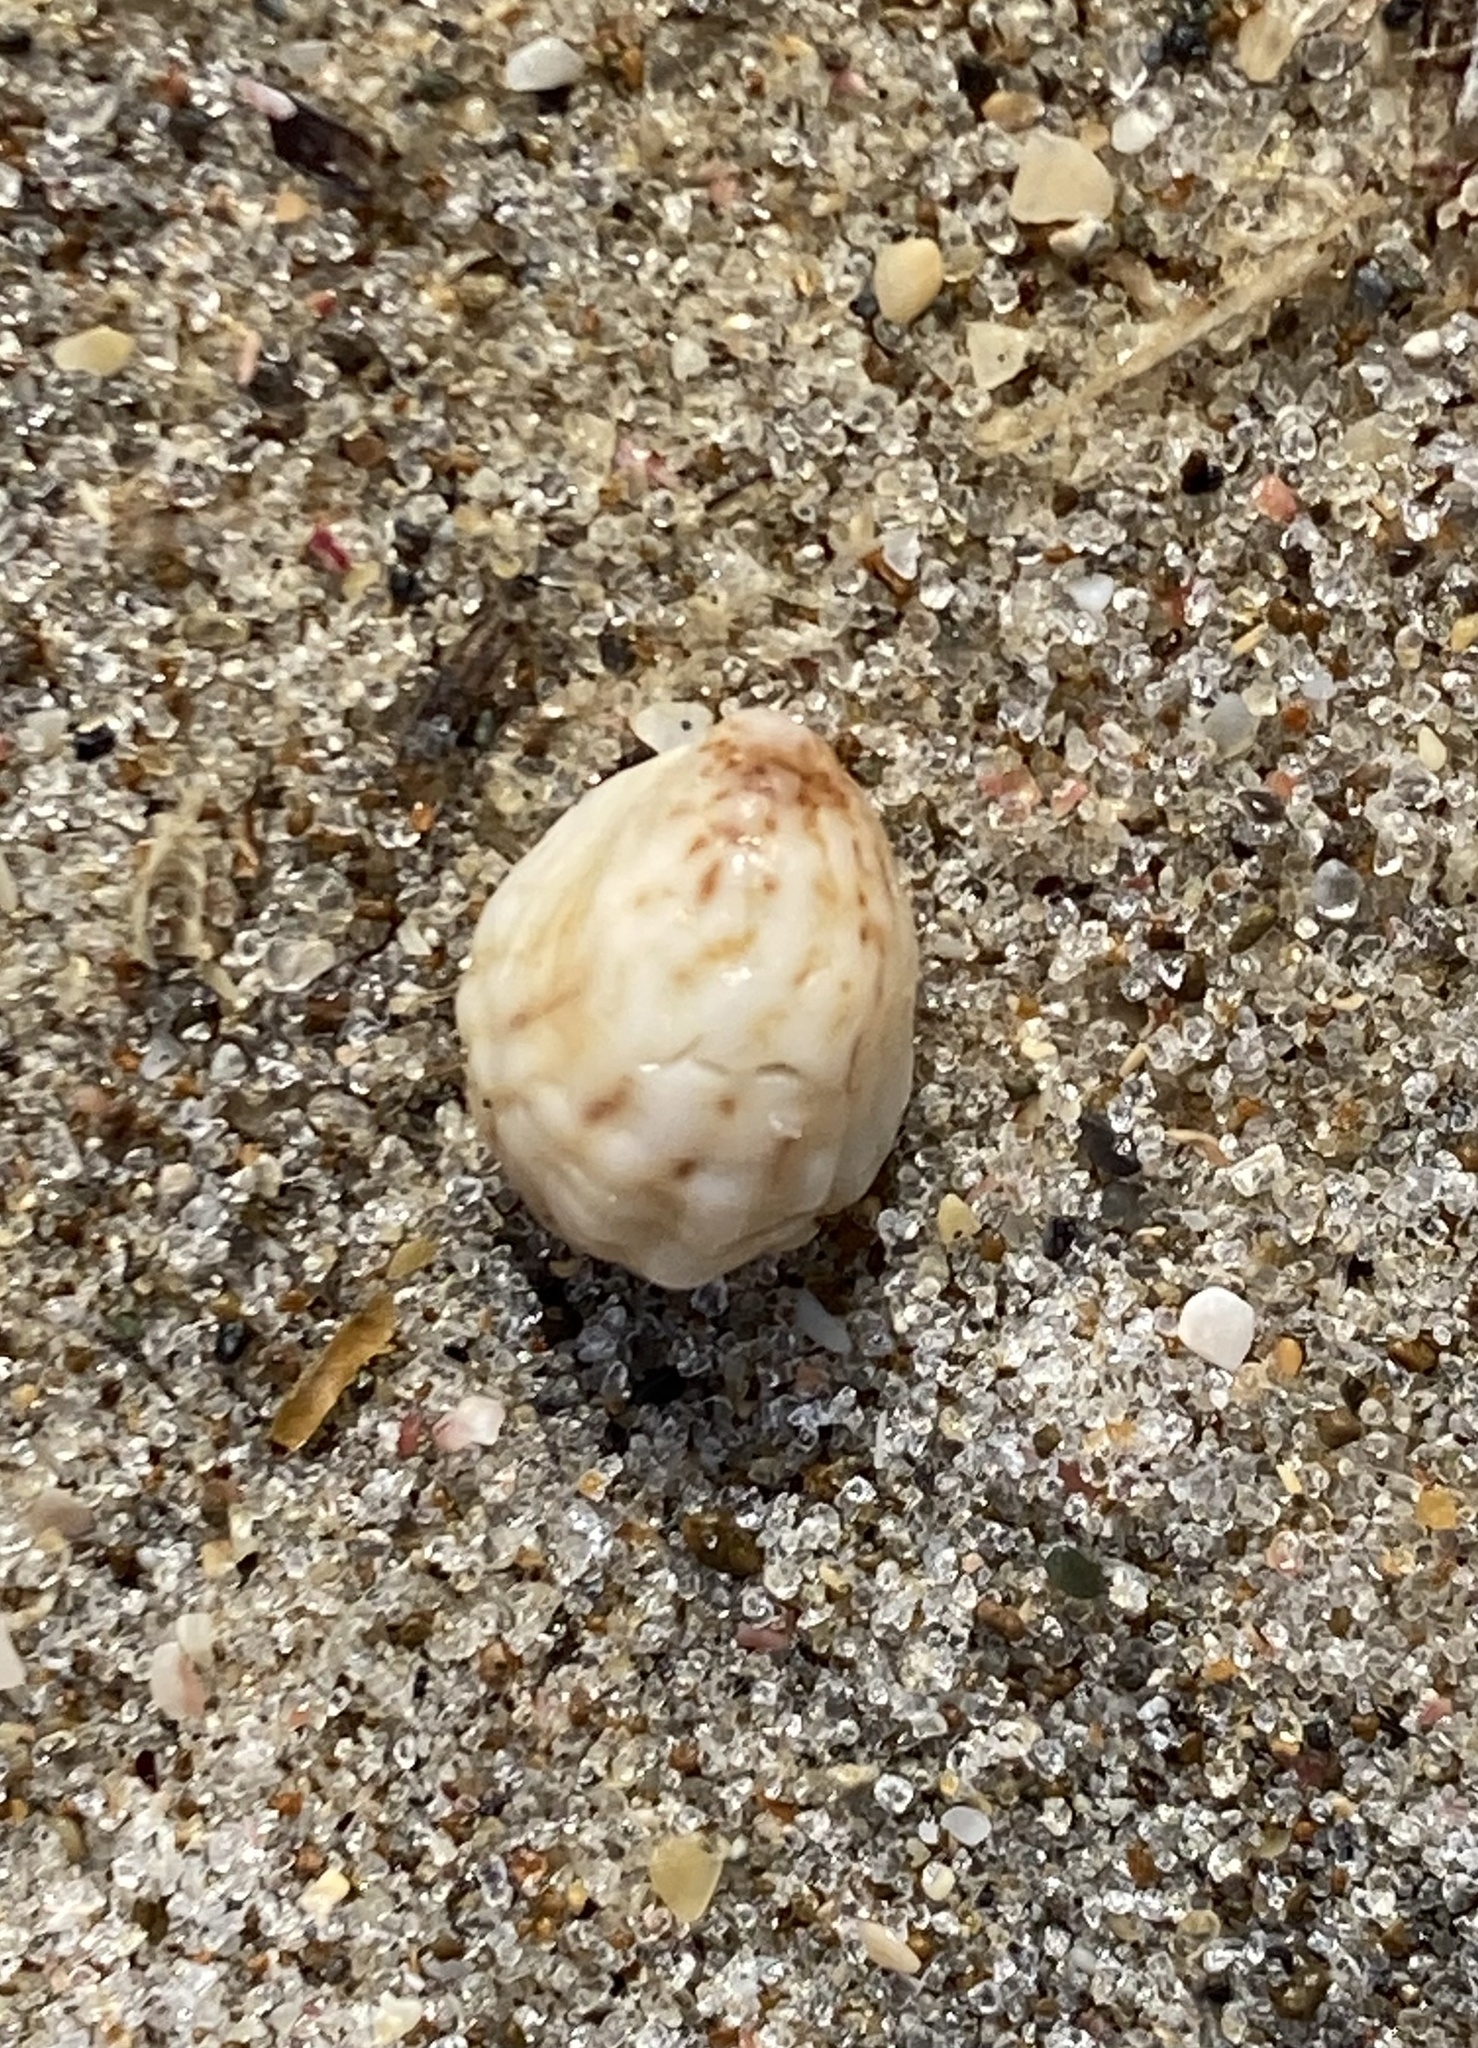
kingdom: Animalia
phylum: Mollusca
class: Gastropoda
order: Littorinimorpha
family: Calyptraeidae
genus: Maoricrypta
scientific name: Maoricrypta costata
